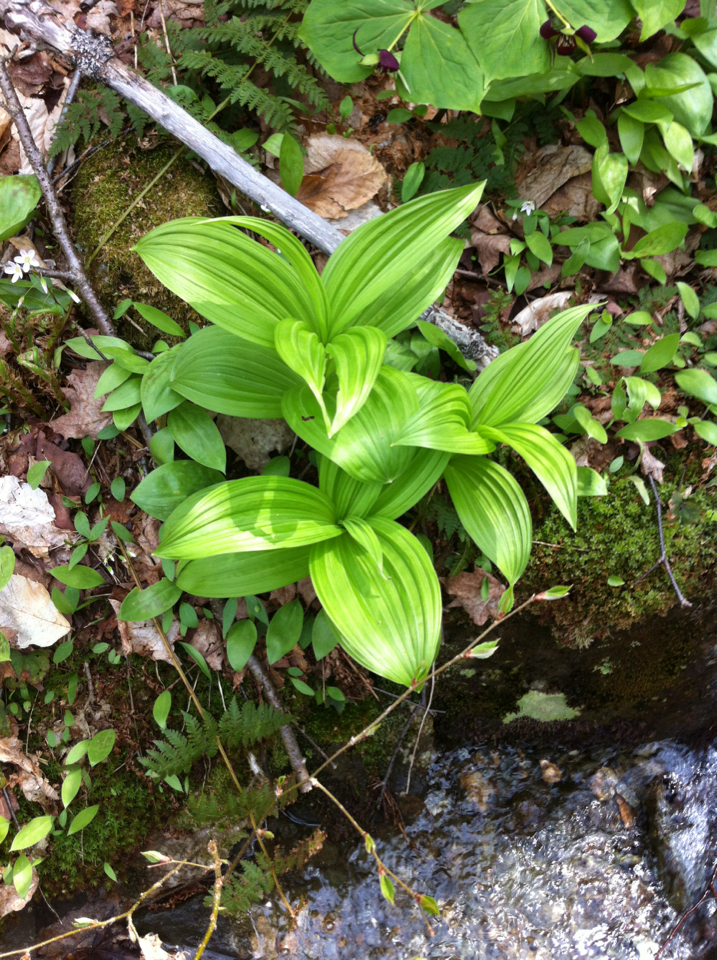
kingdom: Plantae
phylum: Tracheophyta
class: Liliopsida
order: Liliales
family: Melanthiaceae
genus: Veratrum
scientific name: Veratrum viride
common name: American false hellebore
